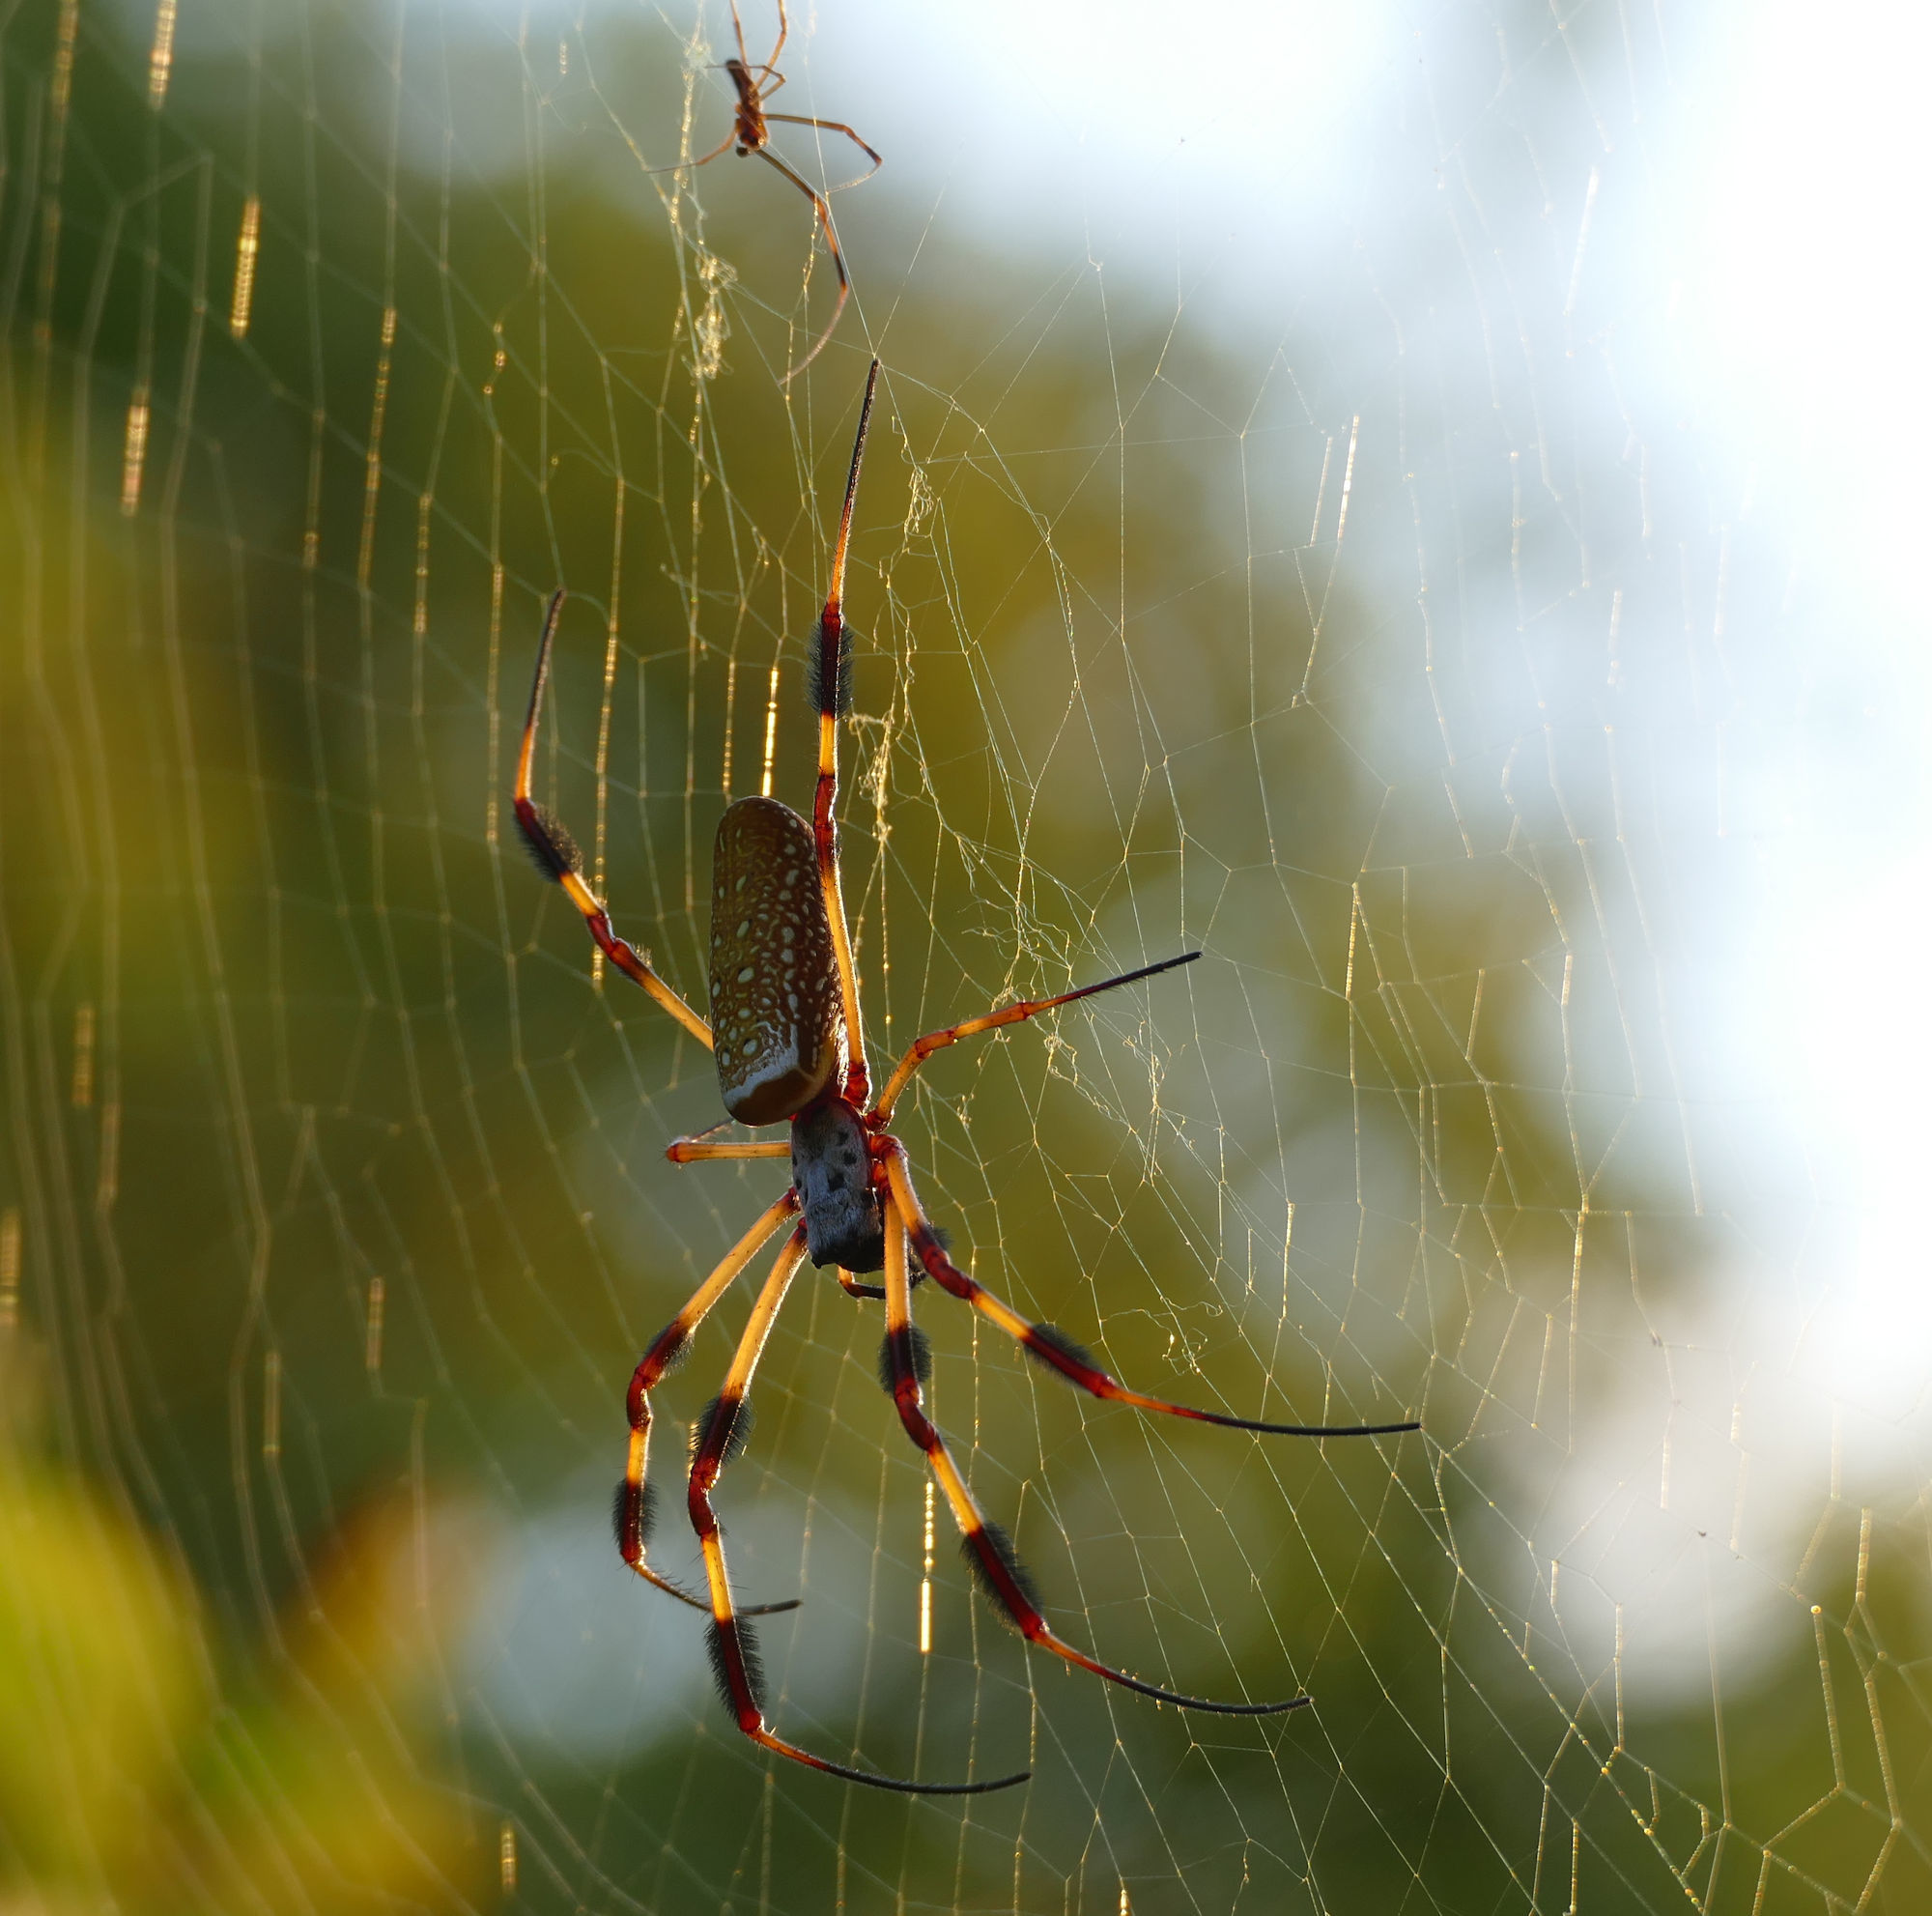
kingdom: Animalia
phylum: Arthropoda
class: Arachnida
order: Araneae
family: Araneidae
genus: Trichonephila
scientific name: Trichonephila clavipes
